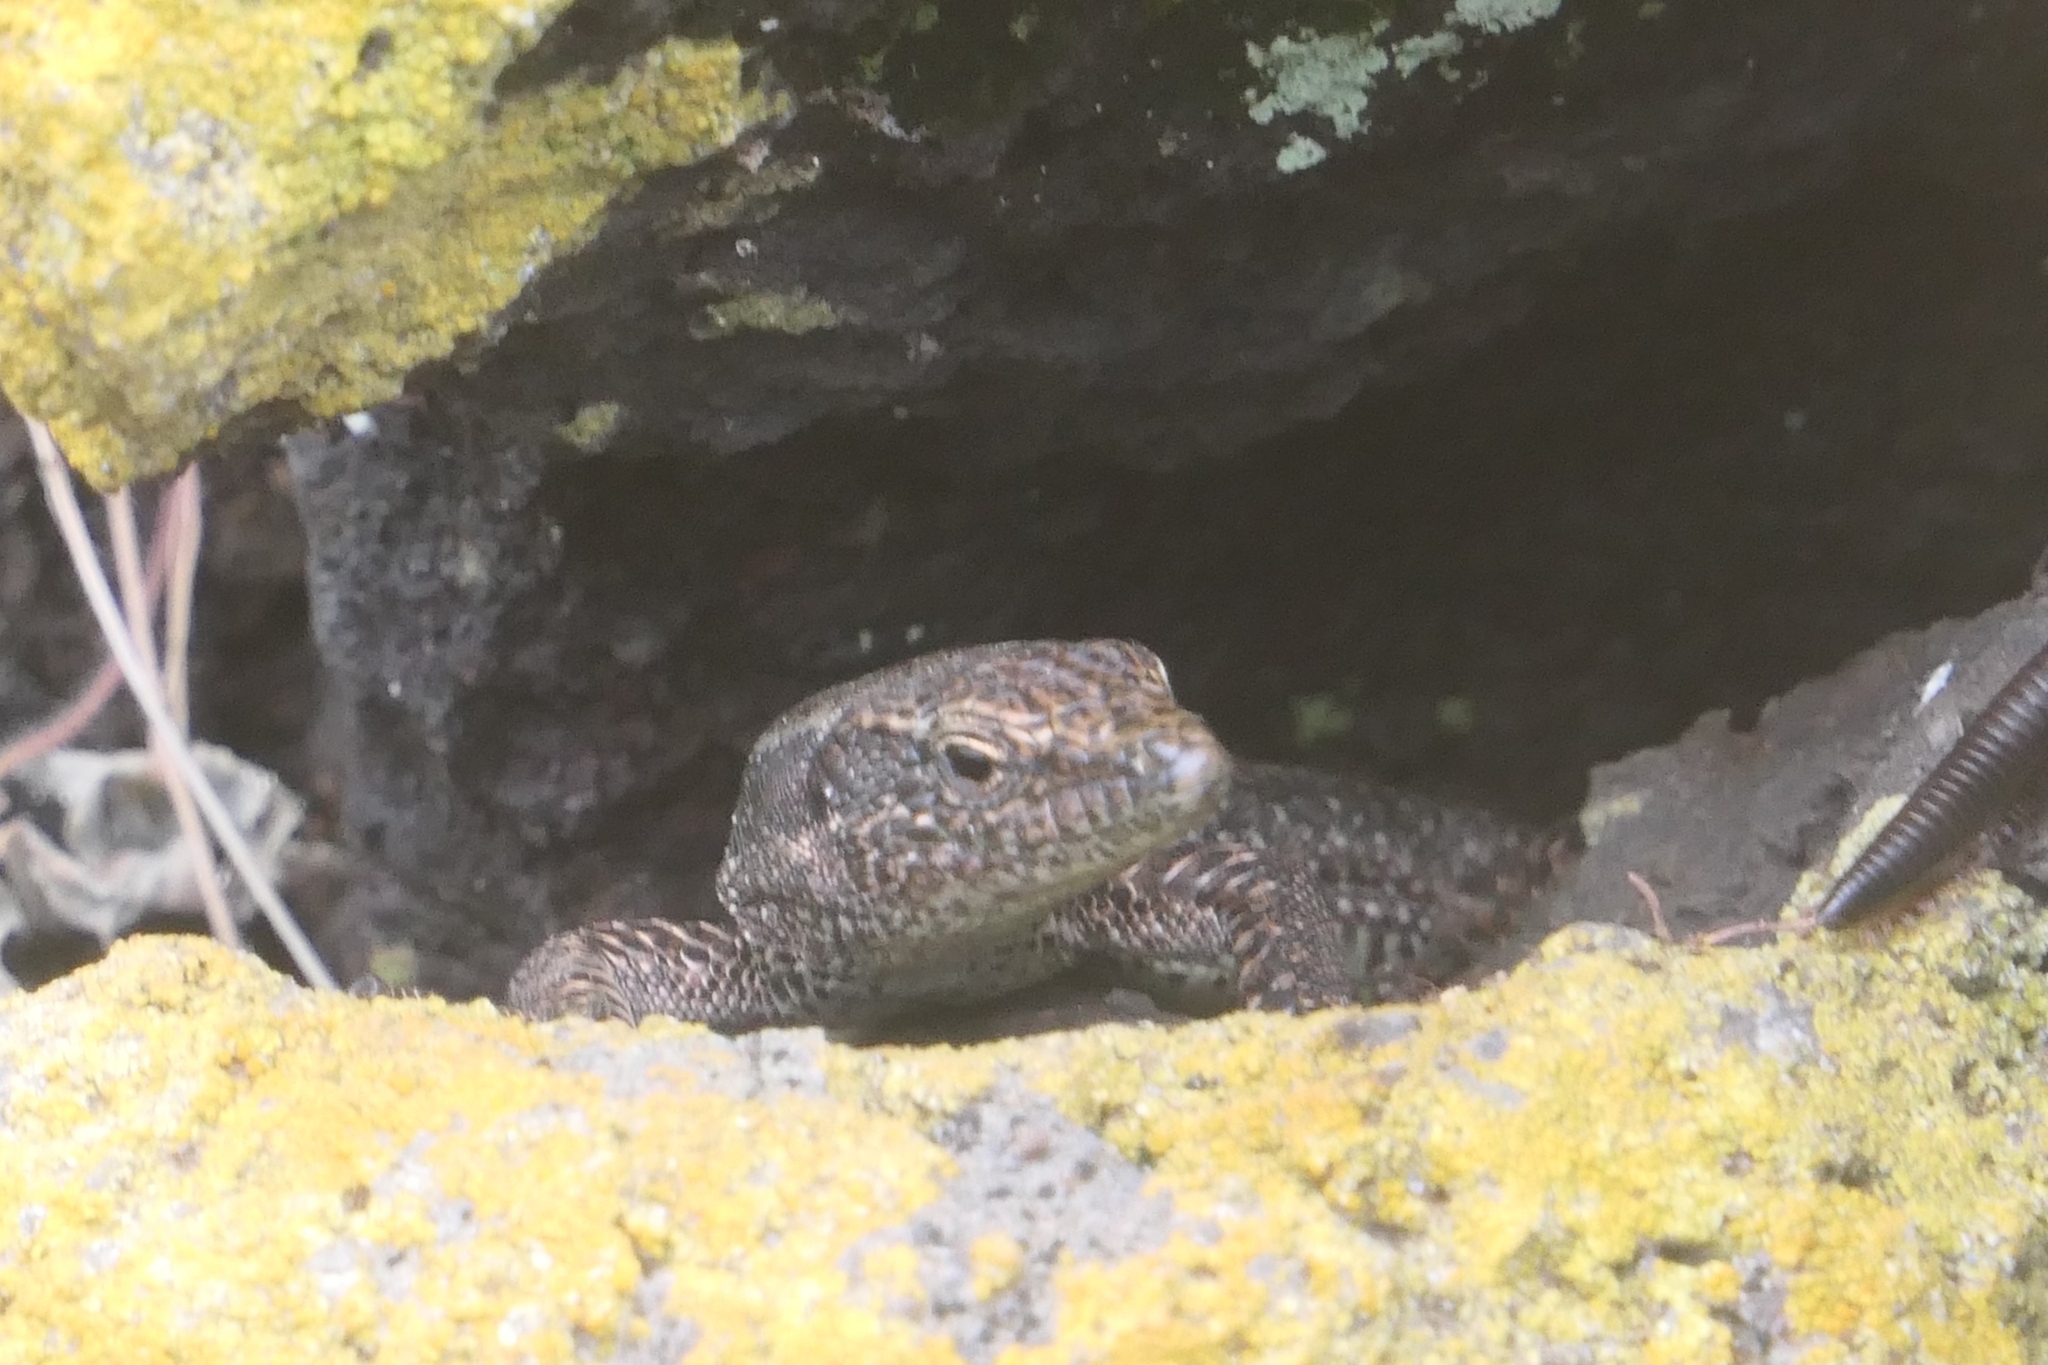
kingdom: Animalia
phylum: Chordata
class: Squamata
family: Lacertidae
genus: Teira
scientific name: Teira dugesii
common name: Madeira lizard
